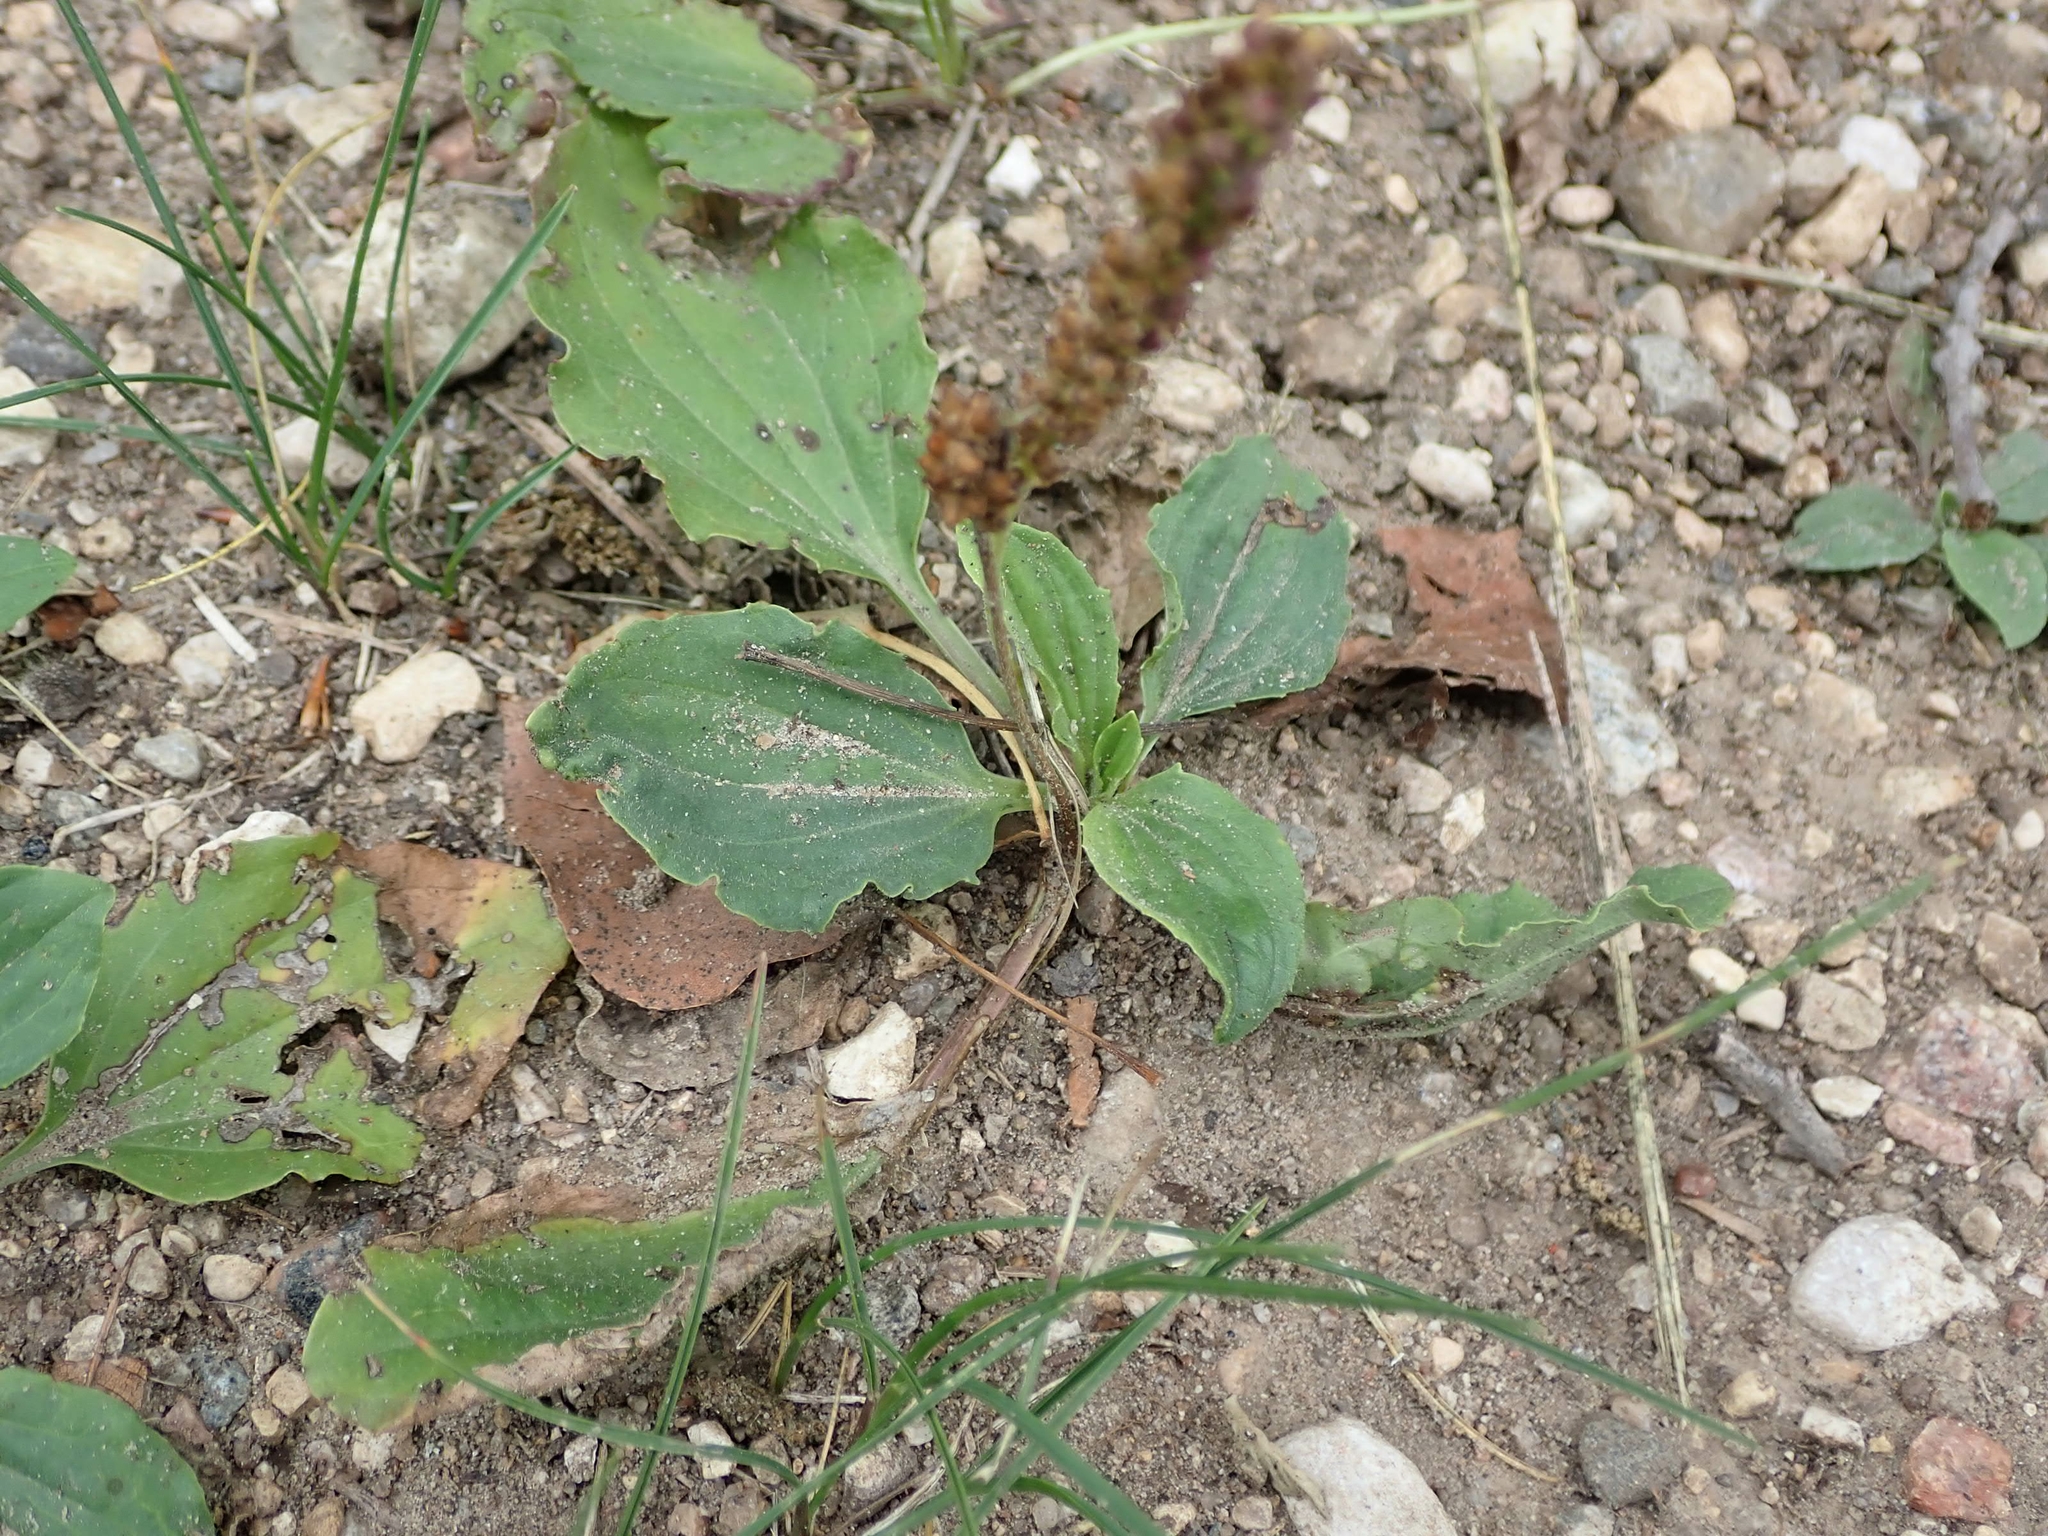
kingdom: Plantae
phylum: Tracheophyta
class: Magnoliopsida
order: Lamiales
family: Plantaginaceae
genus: Plantago
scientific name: Plantago major
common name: Common plantain
